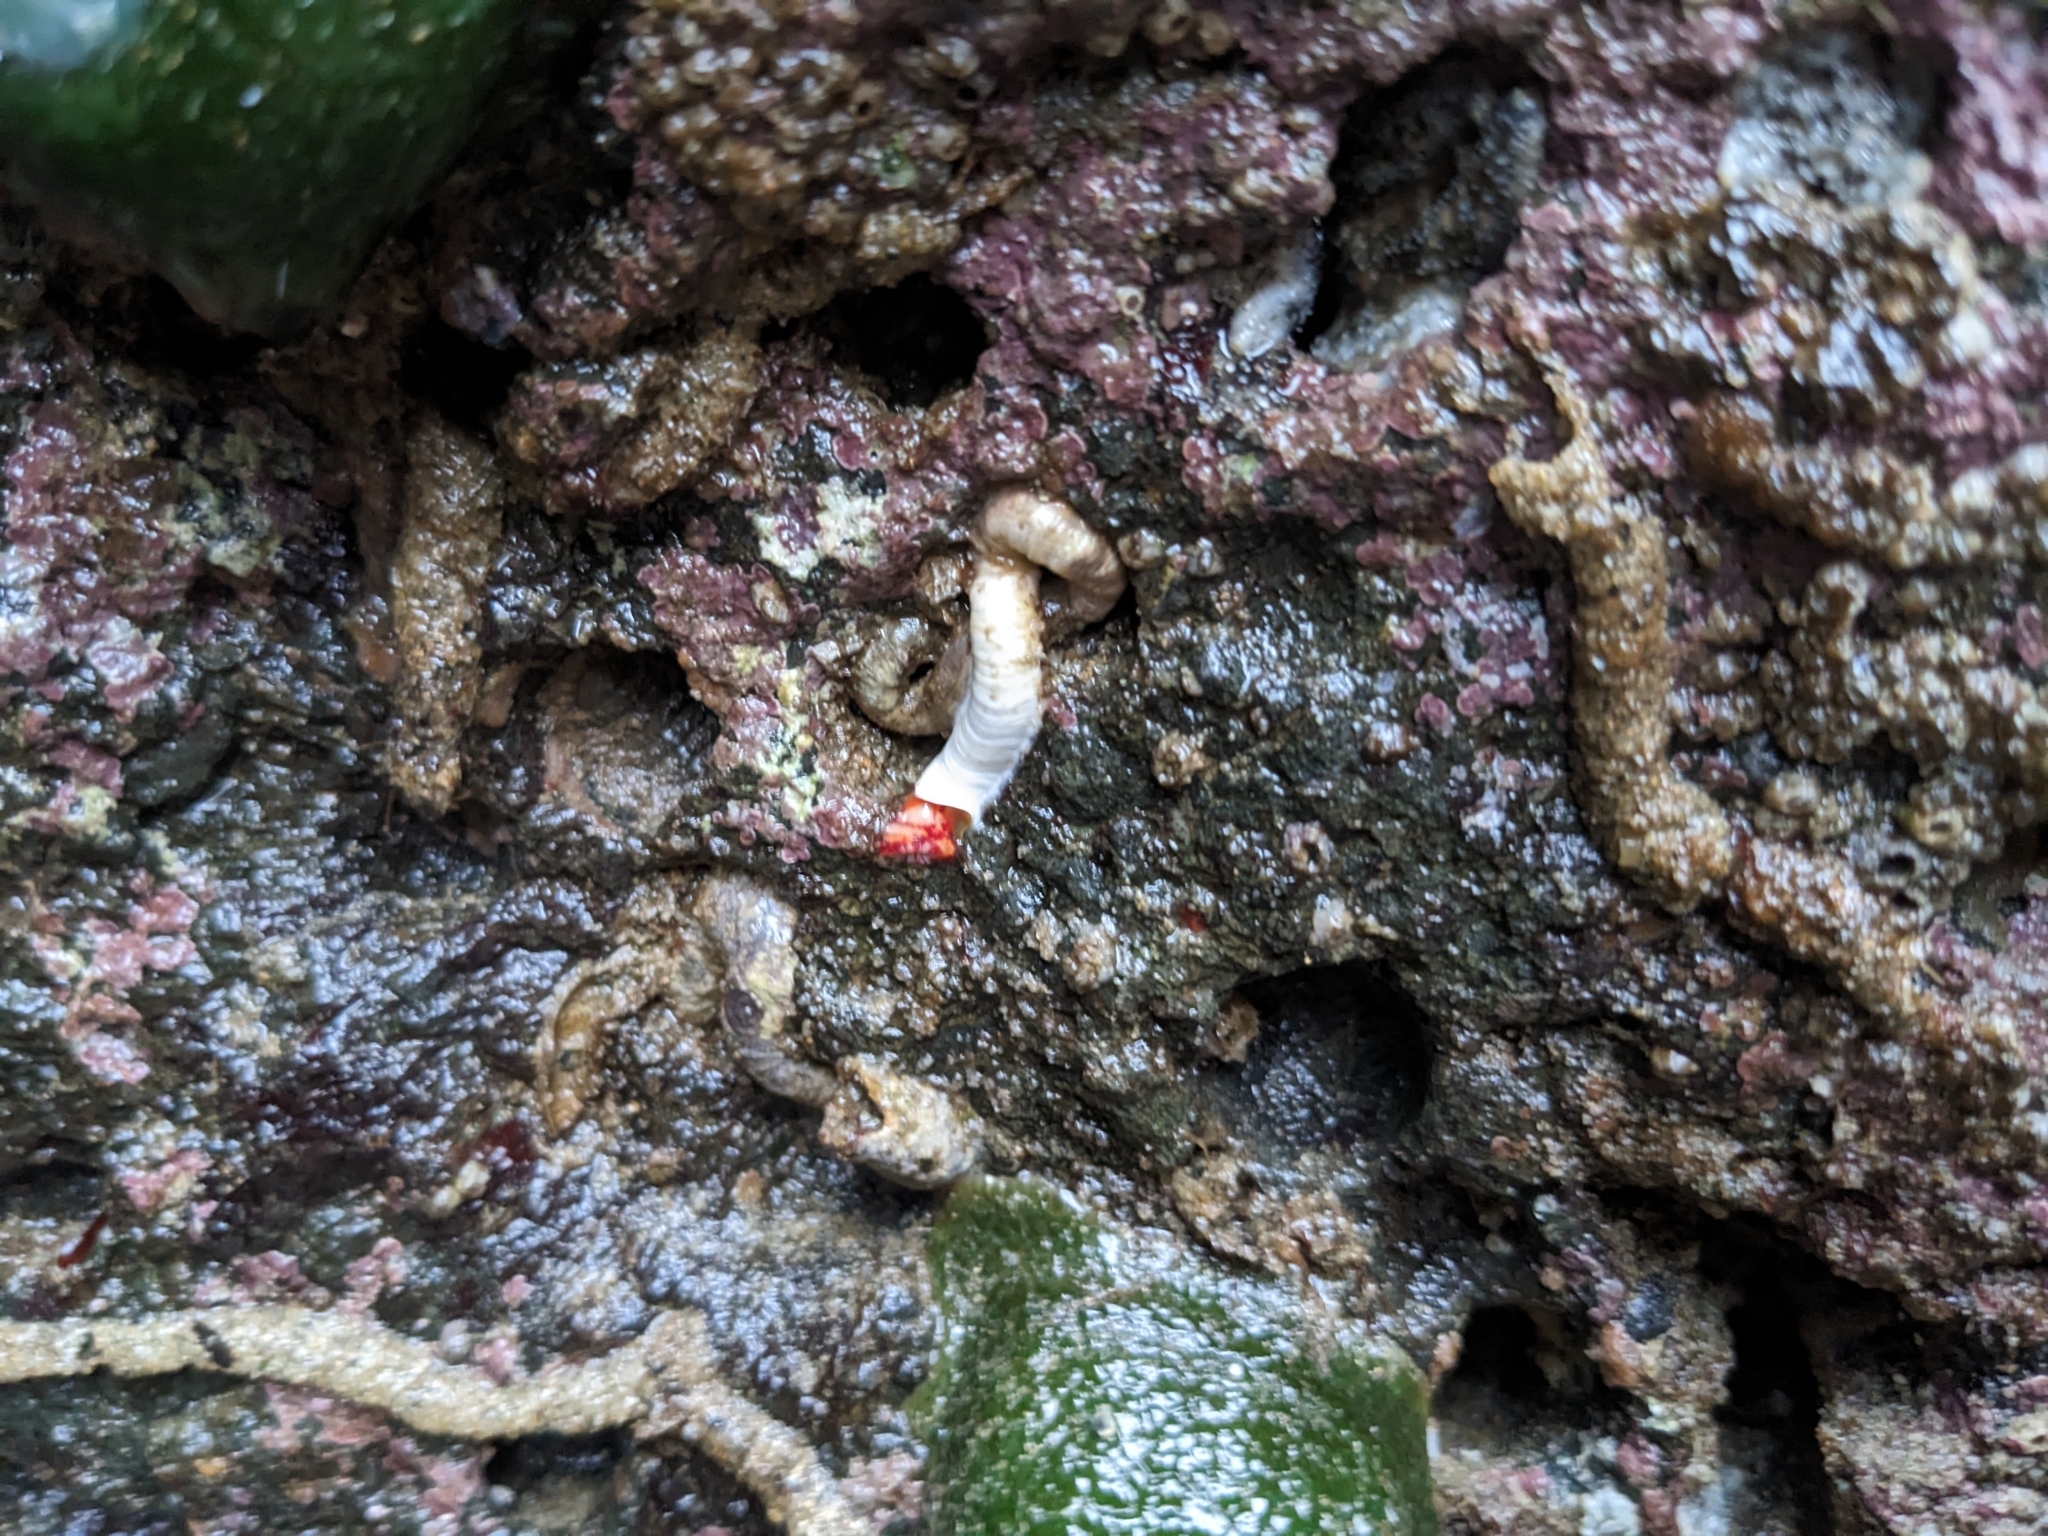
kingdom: Animalia
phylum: Annelida
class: Polychaeta
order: Sabellida
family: Serpulidae
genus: Serpula
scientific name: Serpula columbiana
